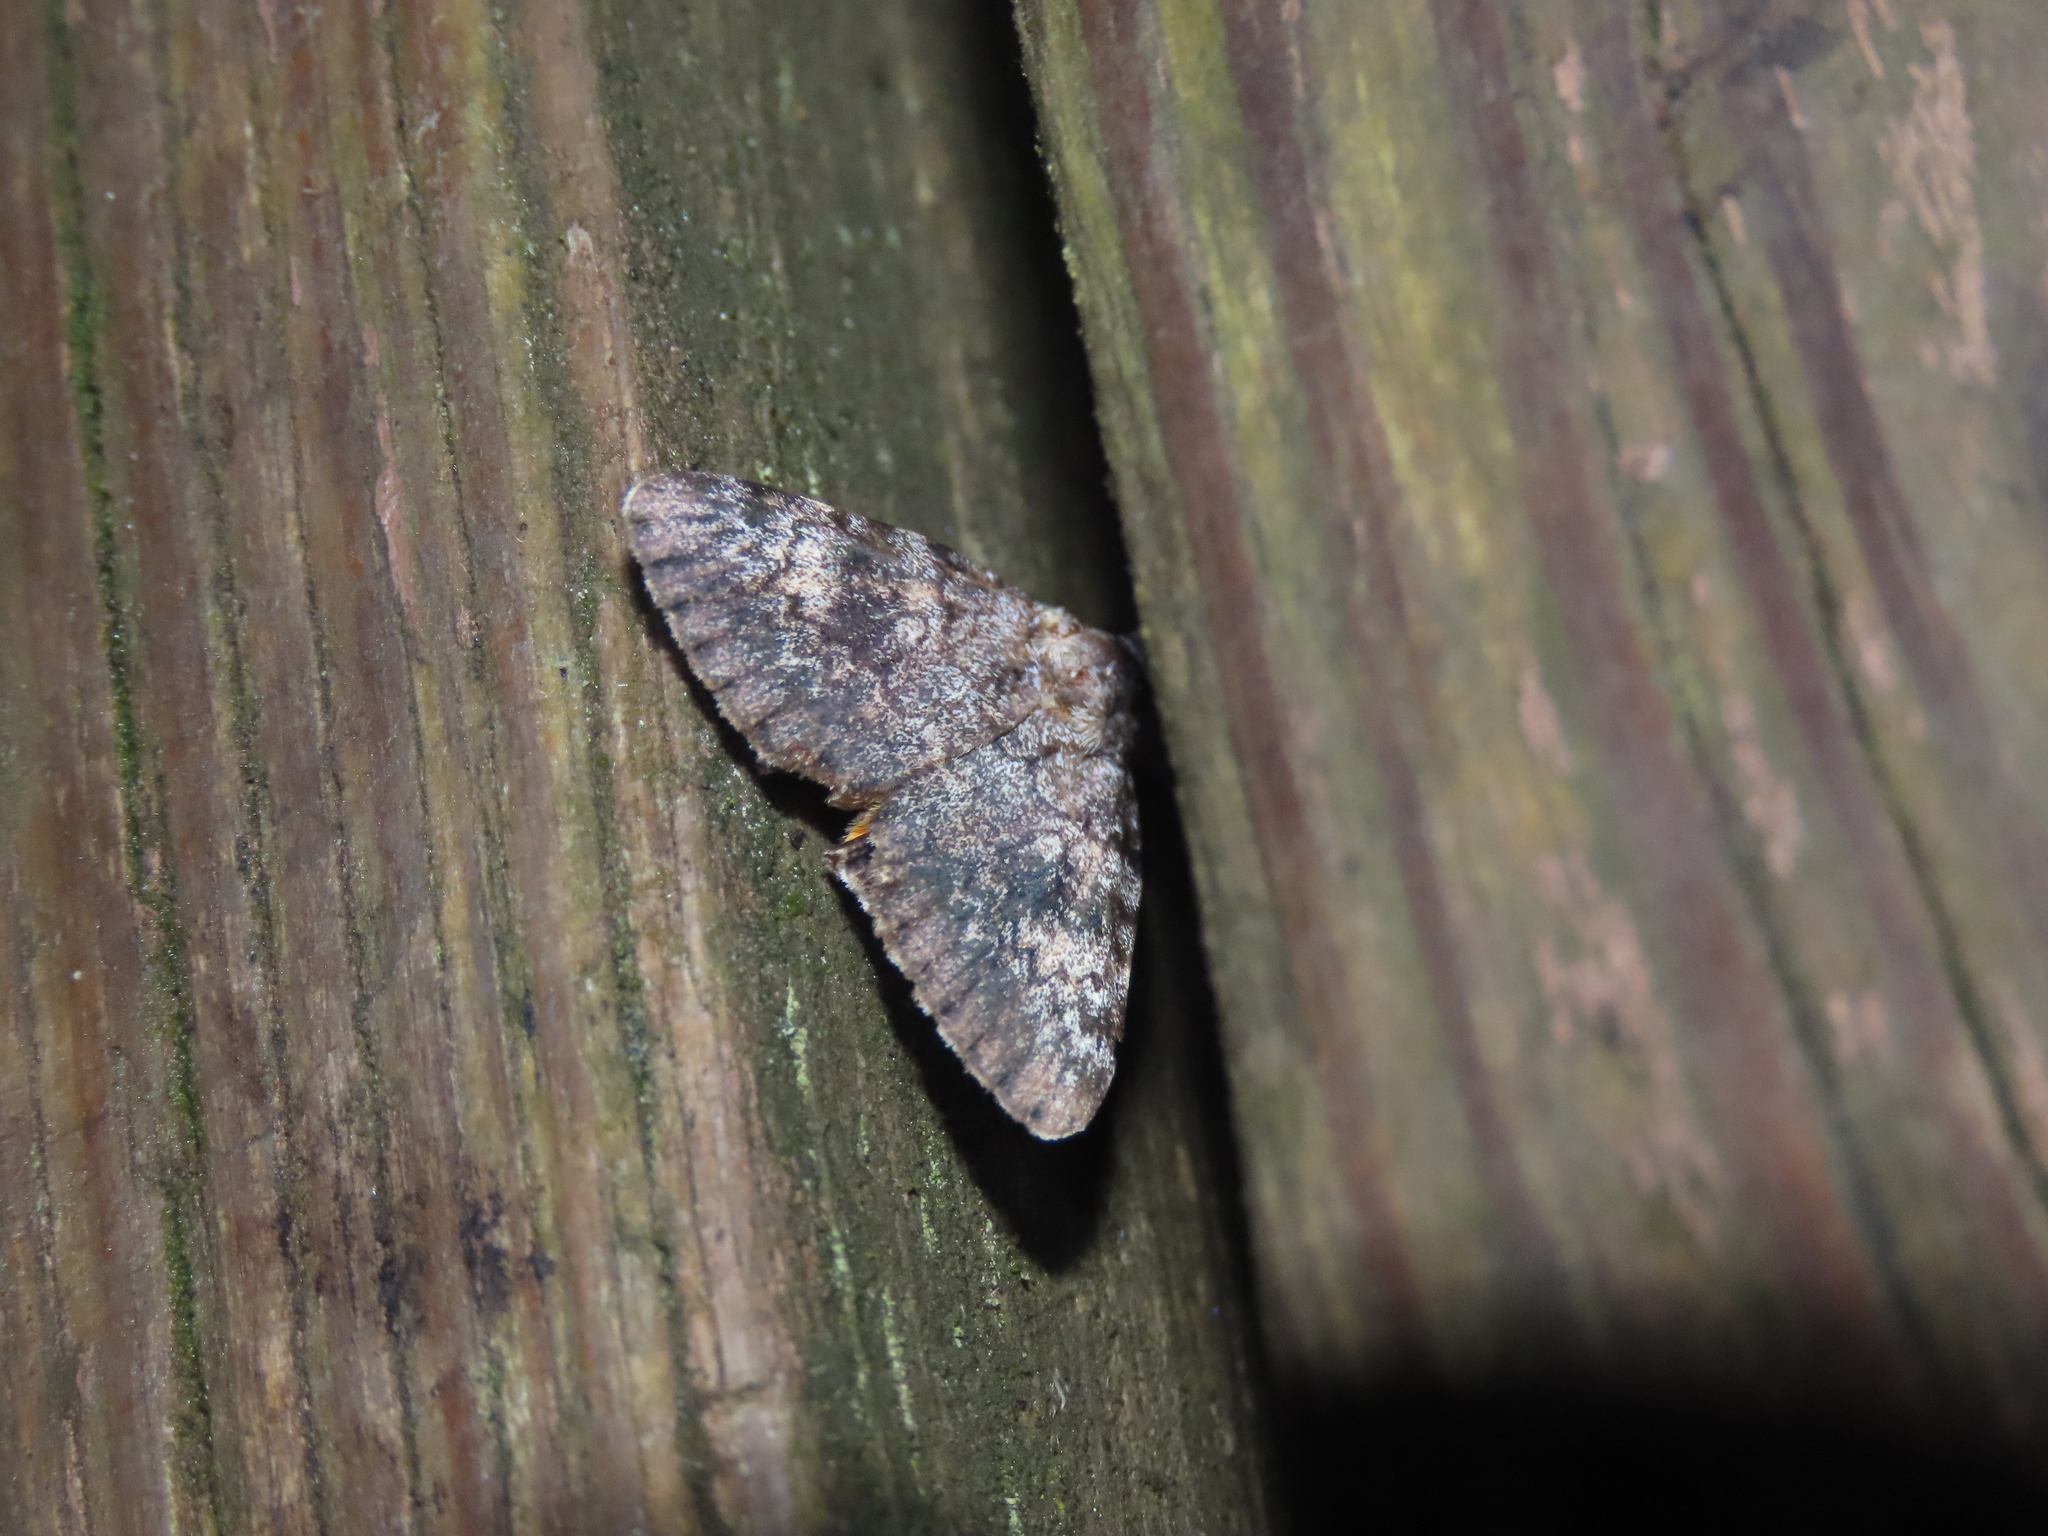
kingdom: Animalia
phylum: Arthropoda
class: Insecta
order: Lepidoptera
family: Erebidae
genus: Catocala
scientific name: Catocala palaeogama
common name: Oldwife underwing
